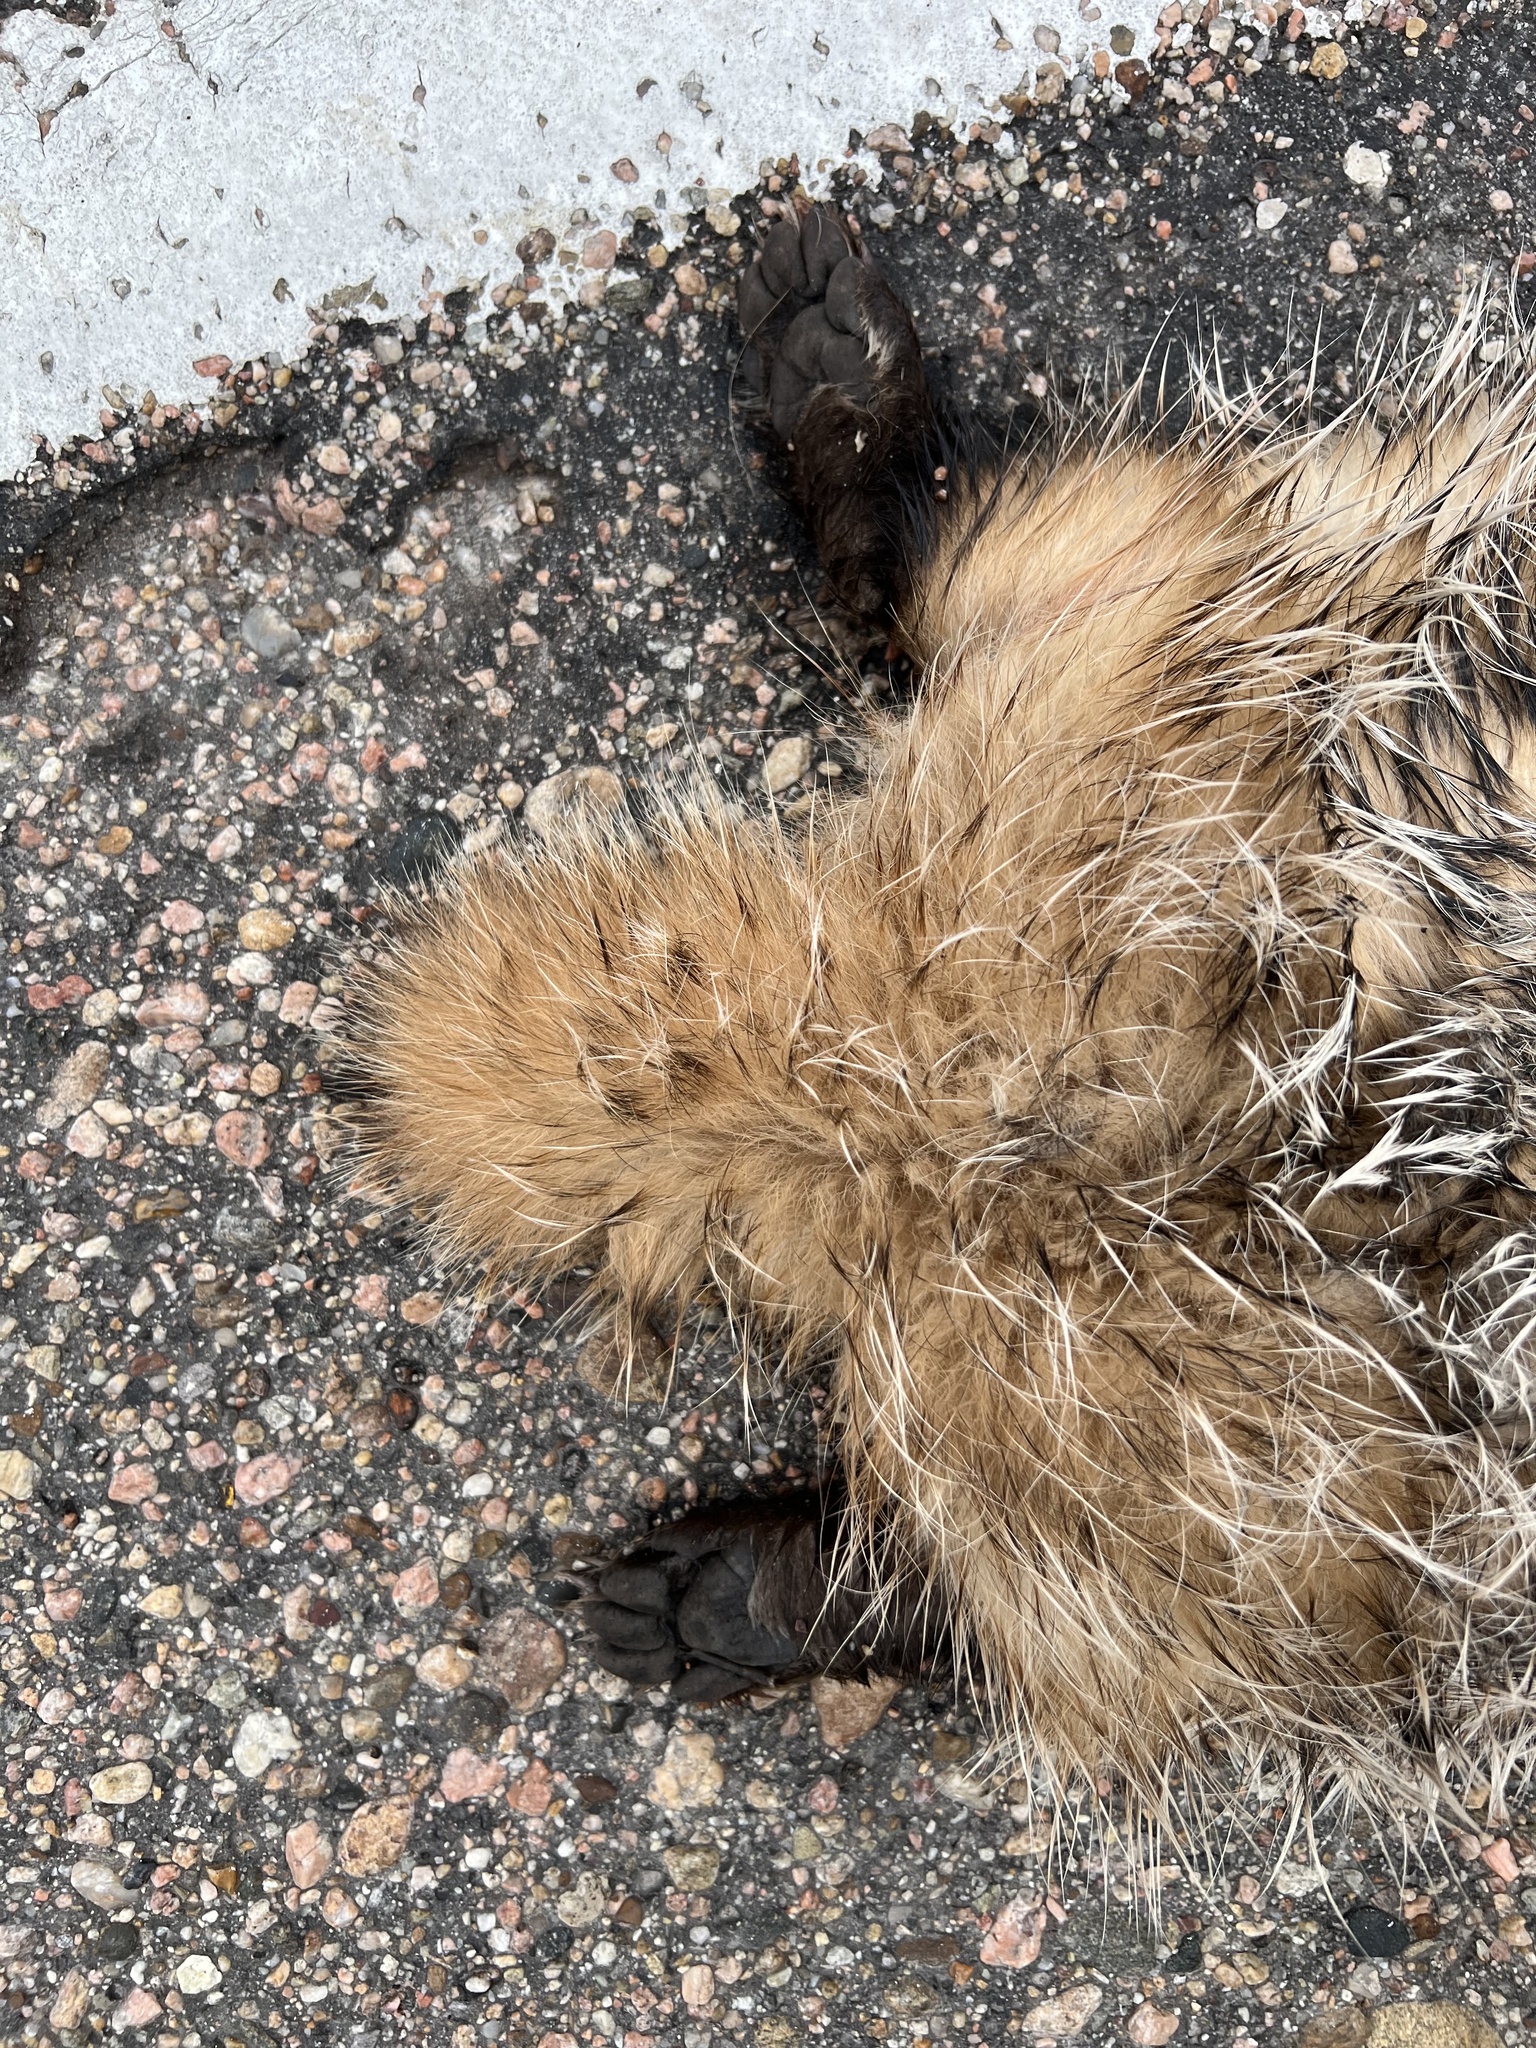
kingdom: Animalia
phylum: Chordata
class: Mammalia
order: Carnivora
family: Mustelidae
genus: Taxidea
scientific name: Taxidea taxus
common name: American badger
